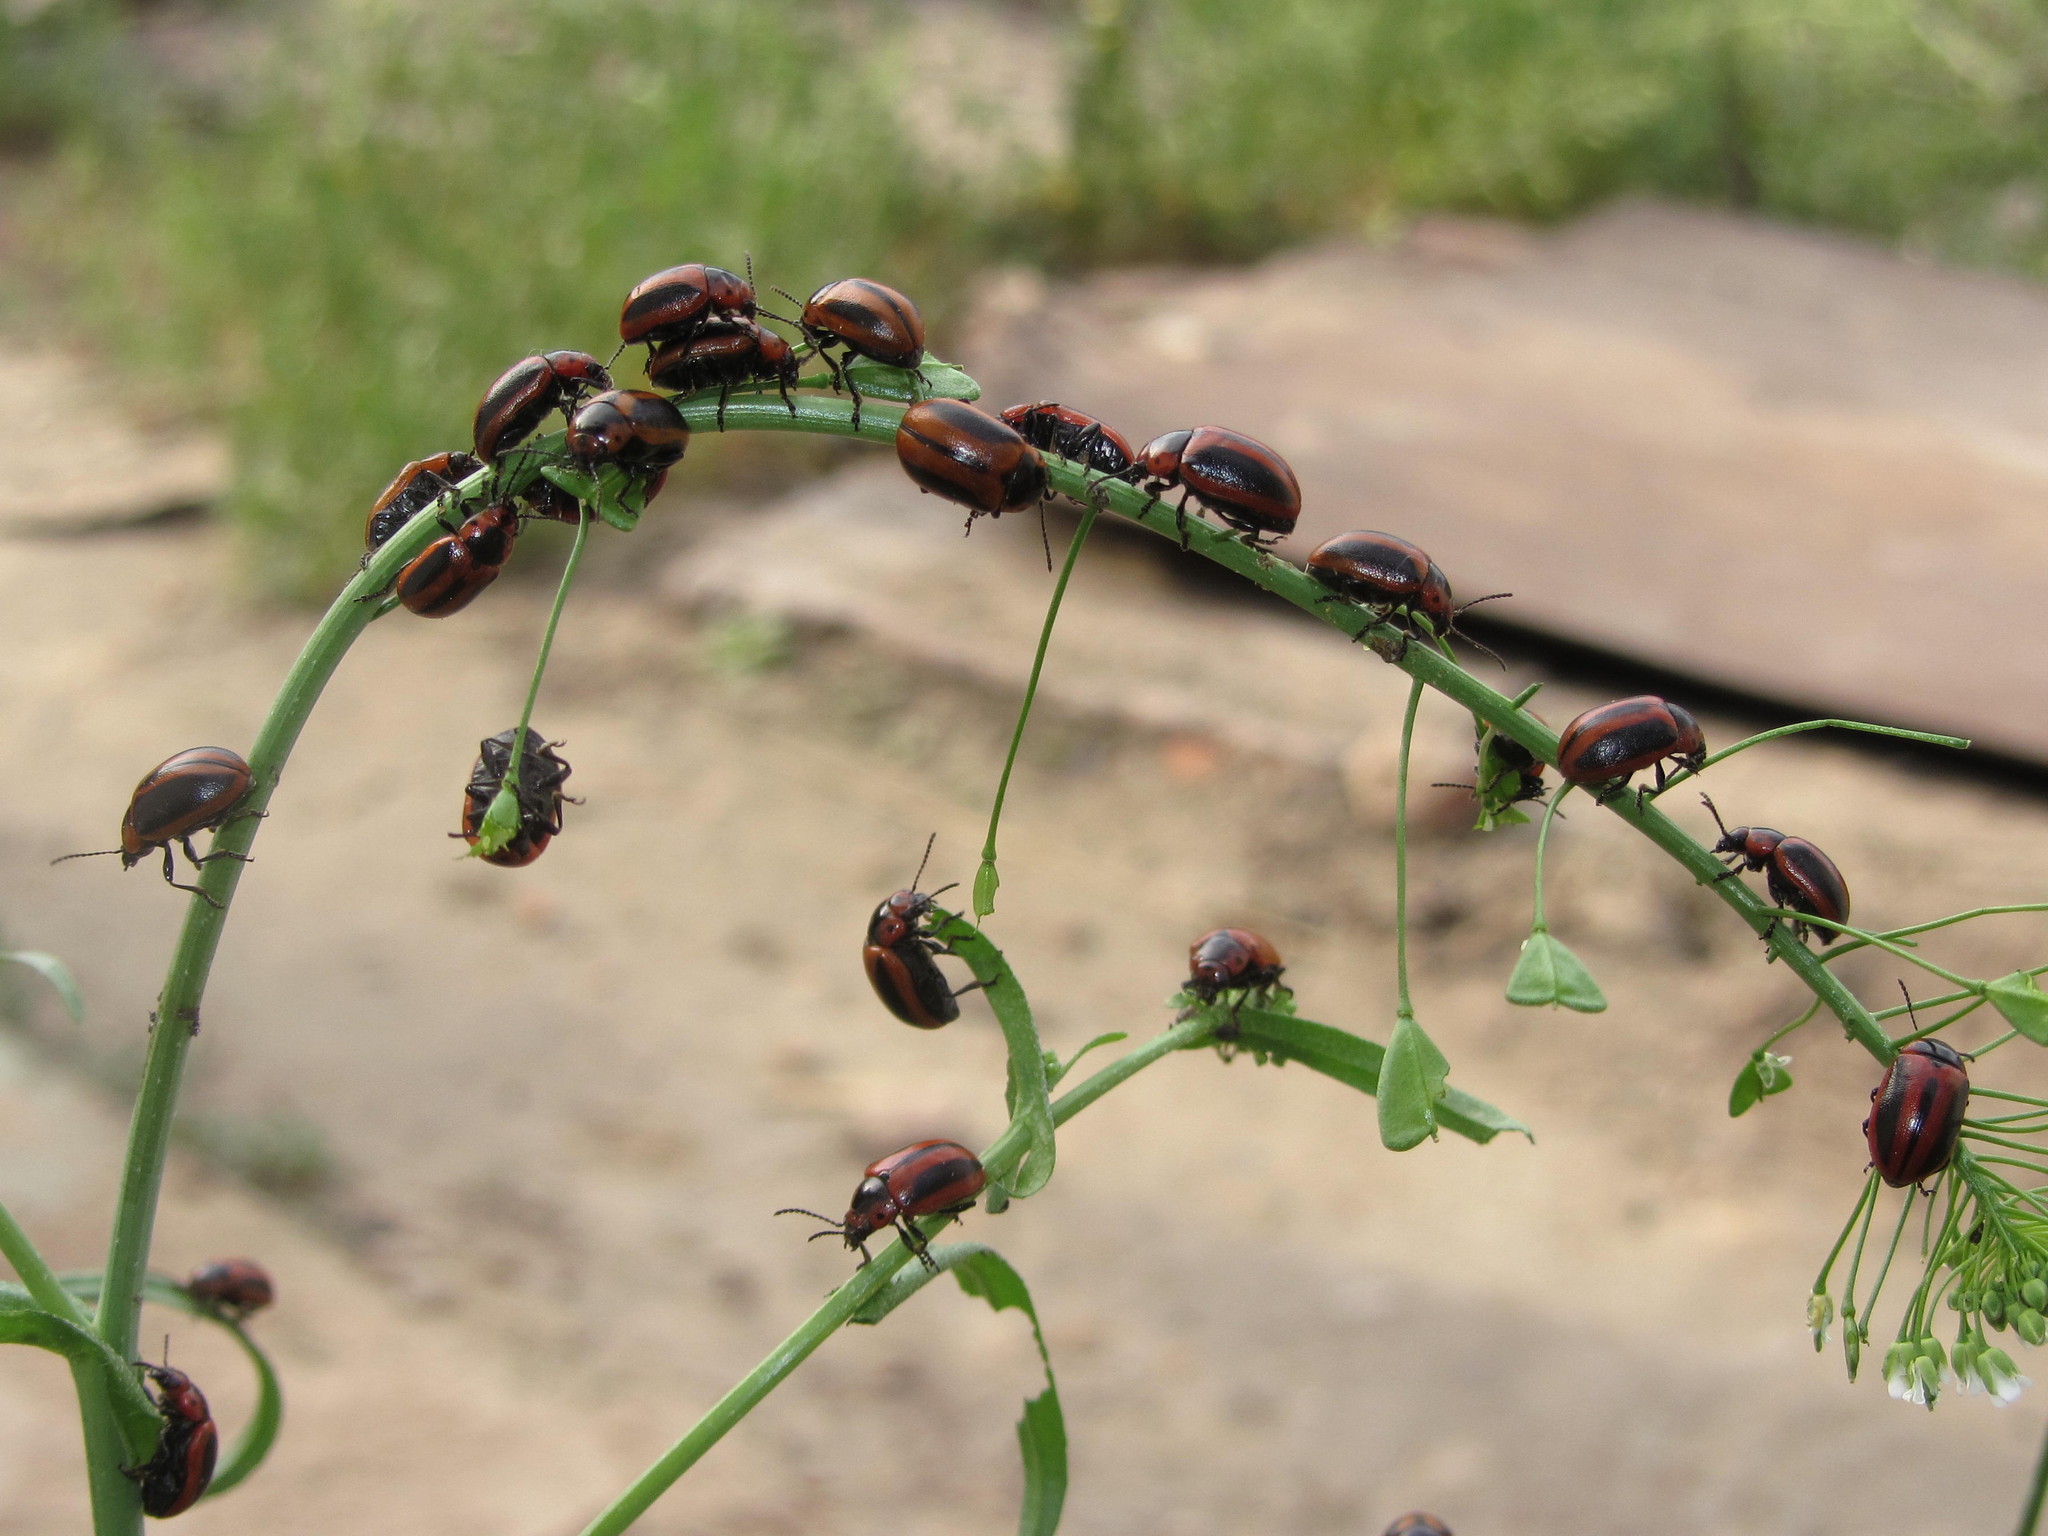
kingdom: Animalia
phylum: Arthropoda
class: Insecta
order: Coleoptera
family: Chrysomelidae
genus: Entomoscelis
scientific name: Entomoscelis adonidis
